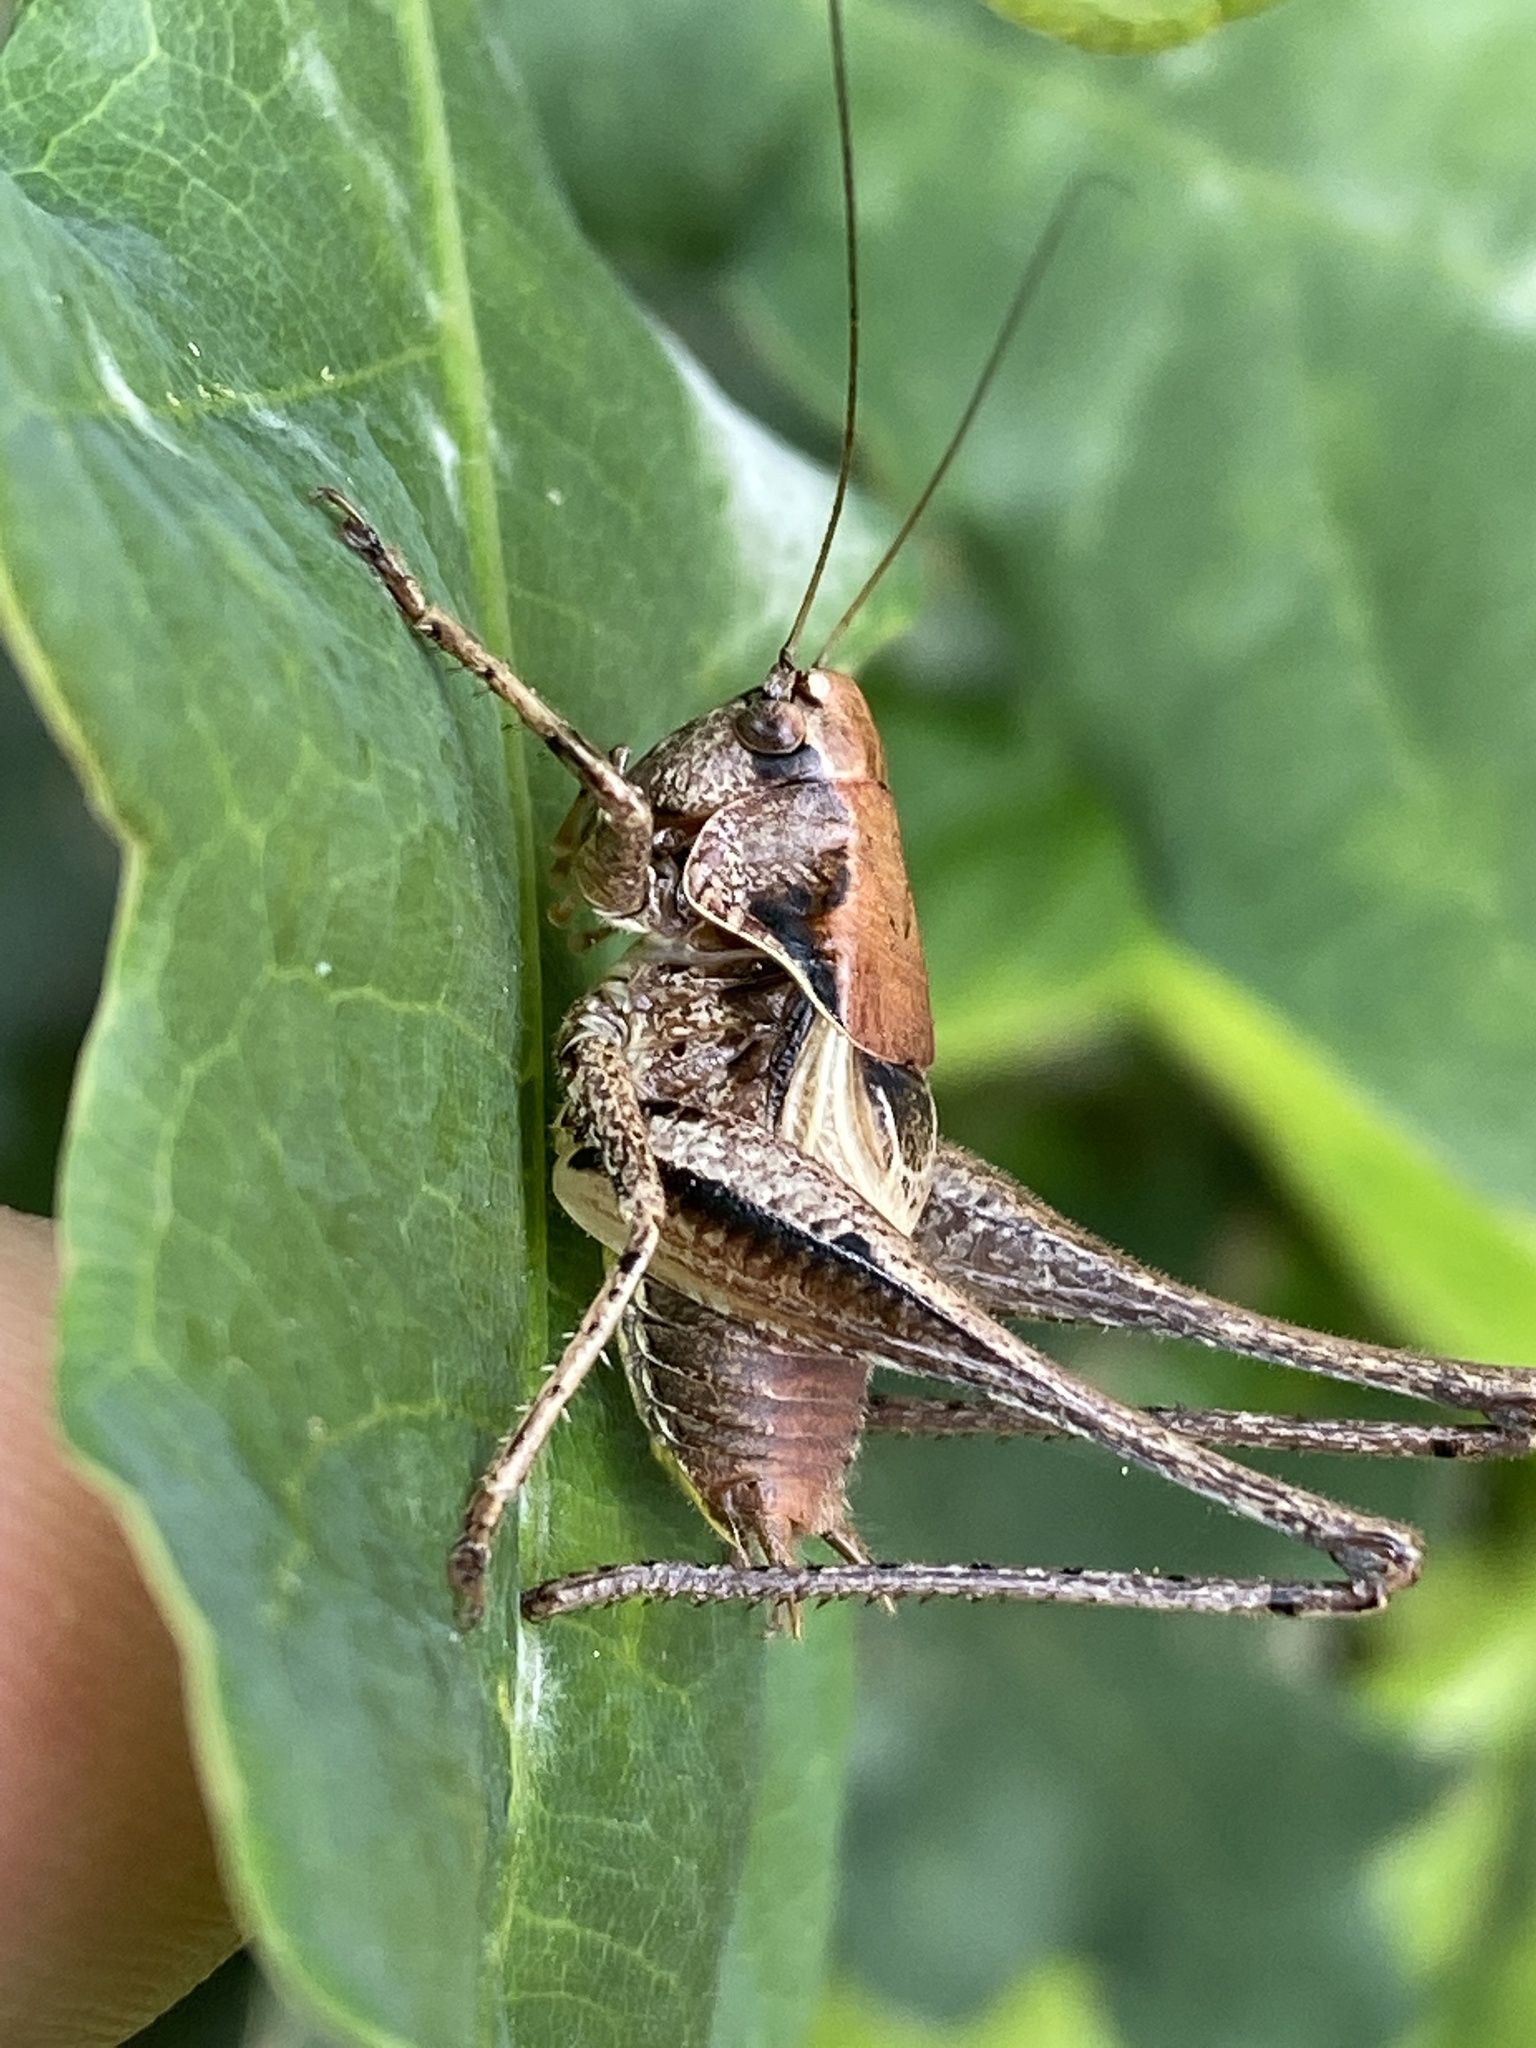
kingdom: Animalia
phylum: Arthropoda
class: Insecta
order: Orthoptera
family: Tettigoniidae
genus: Pholidoptera
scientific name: Pholidoptera griseoaptera
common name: Dark bush-cricket
